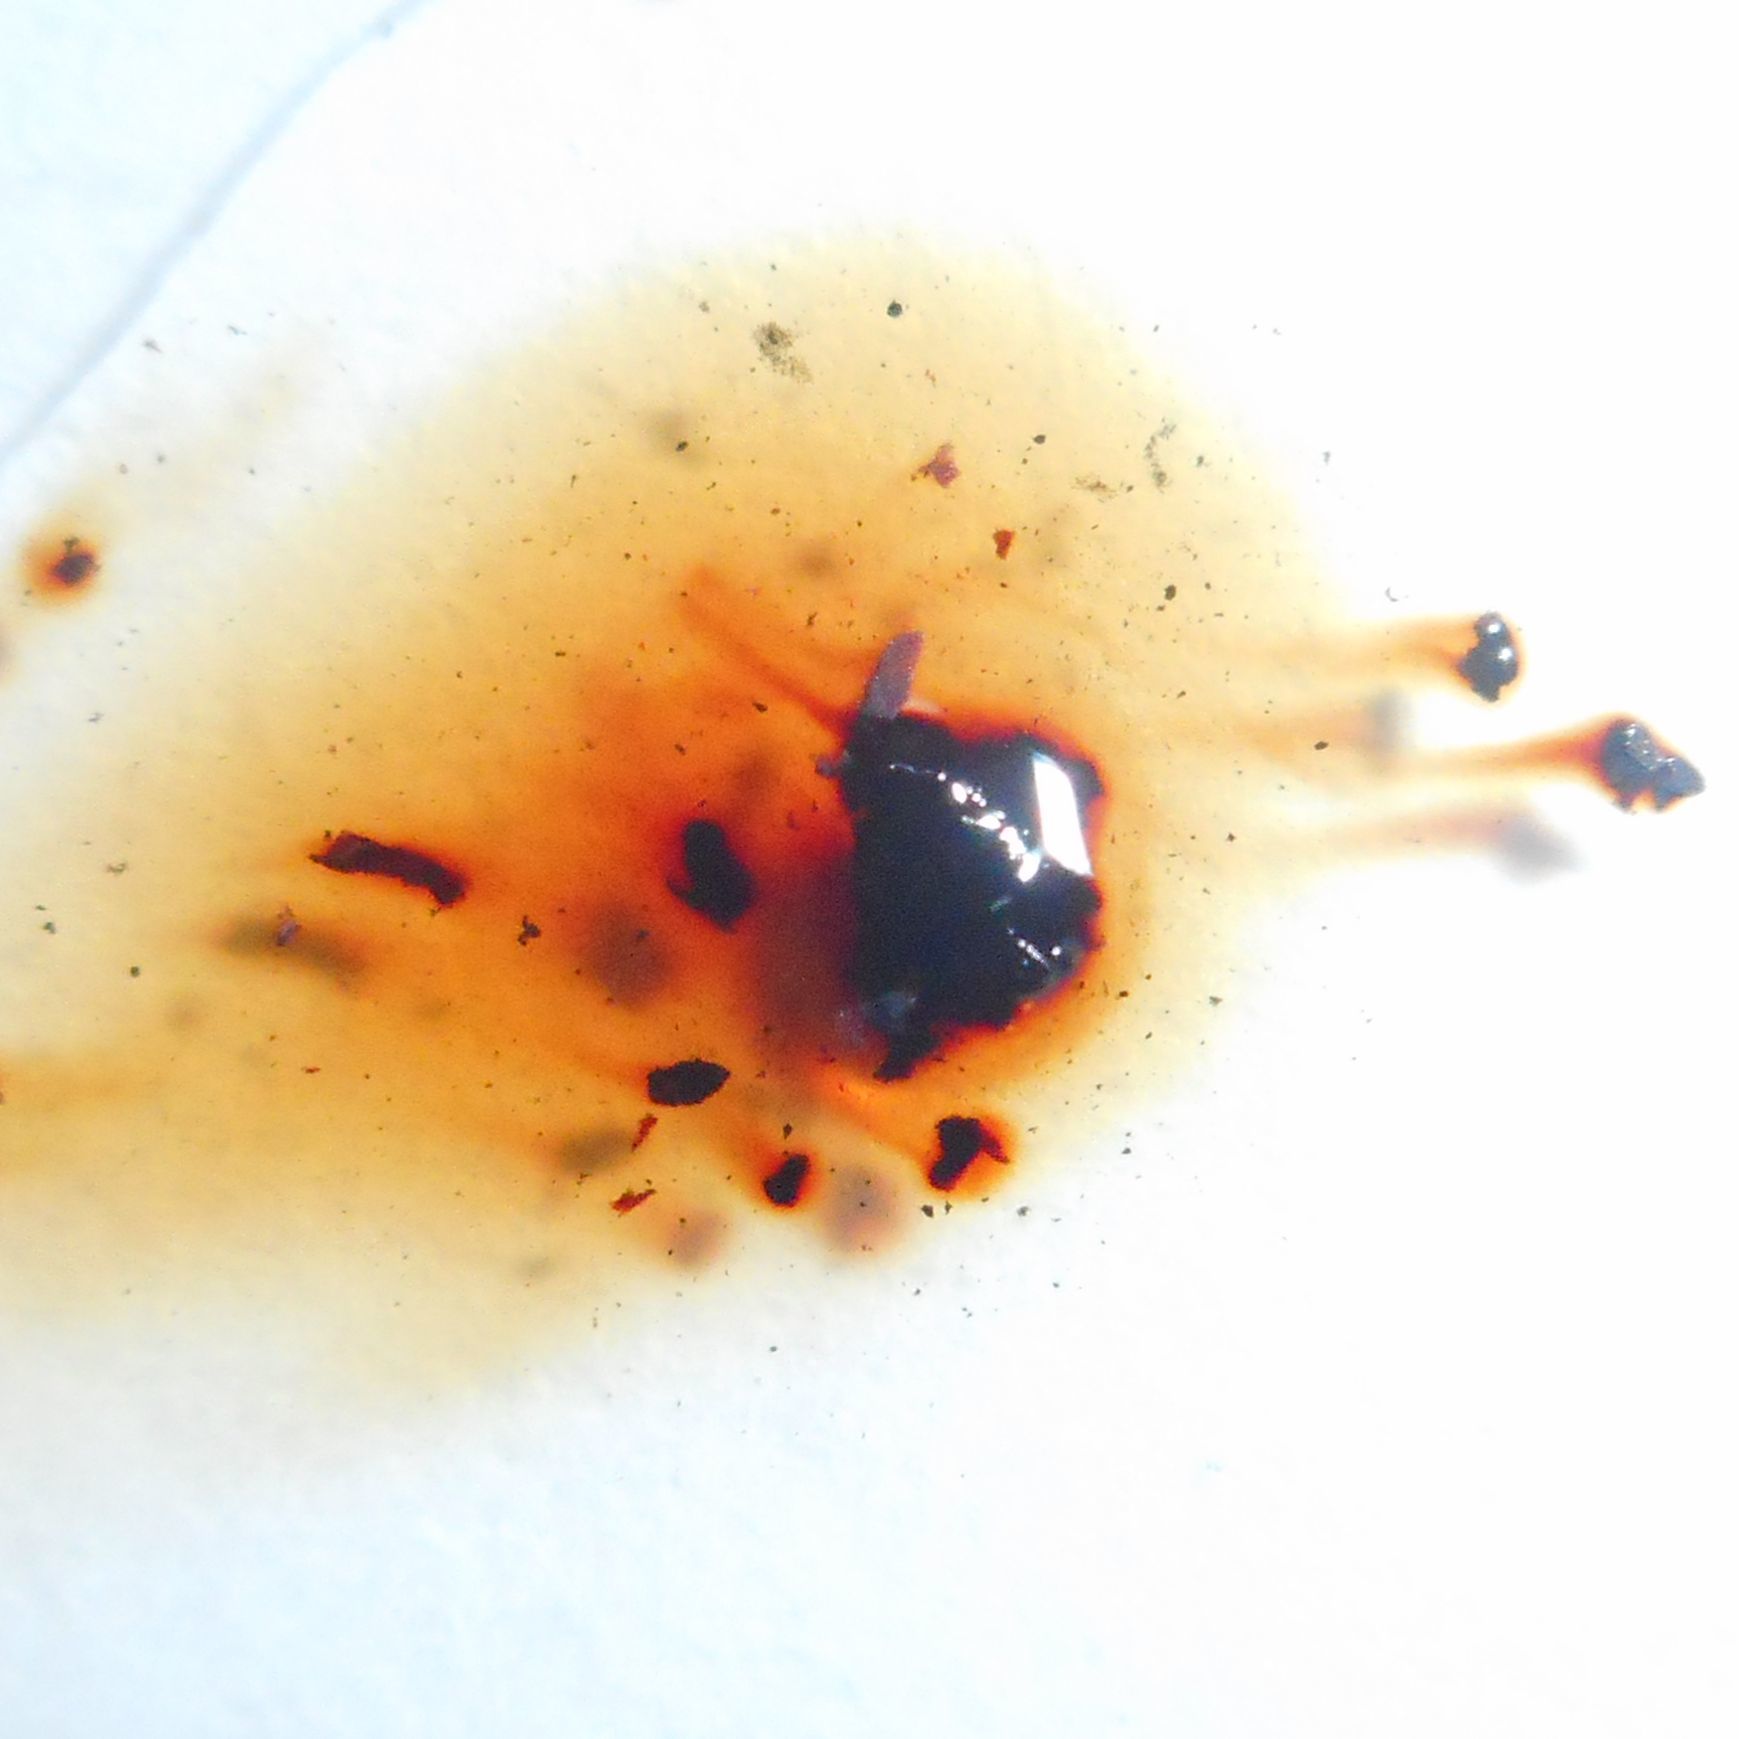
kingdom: Fungi
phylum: Ascomycota
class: Sordariomycetes
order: Xylariales
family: Hypoxylaceae
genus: Daldinia
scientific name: Daldinia childiae
